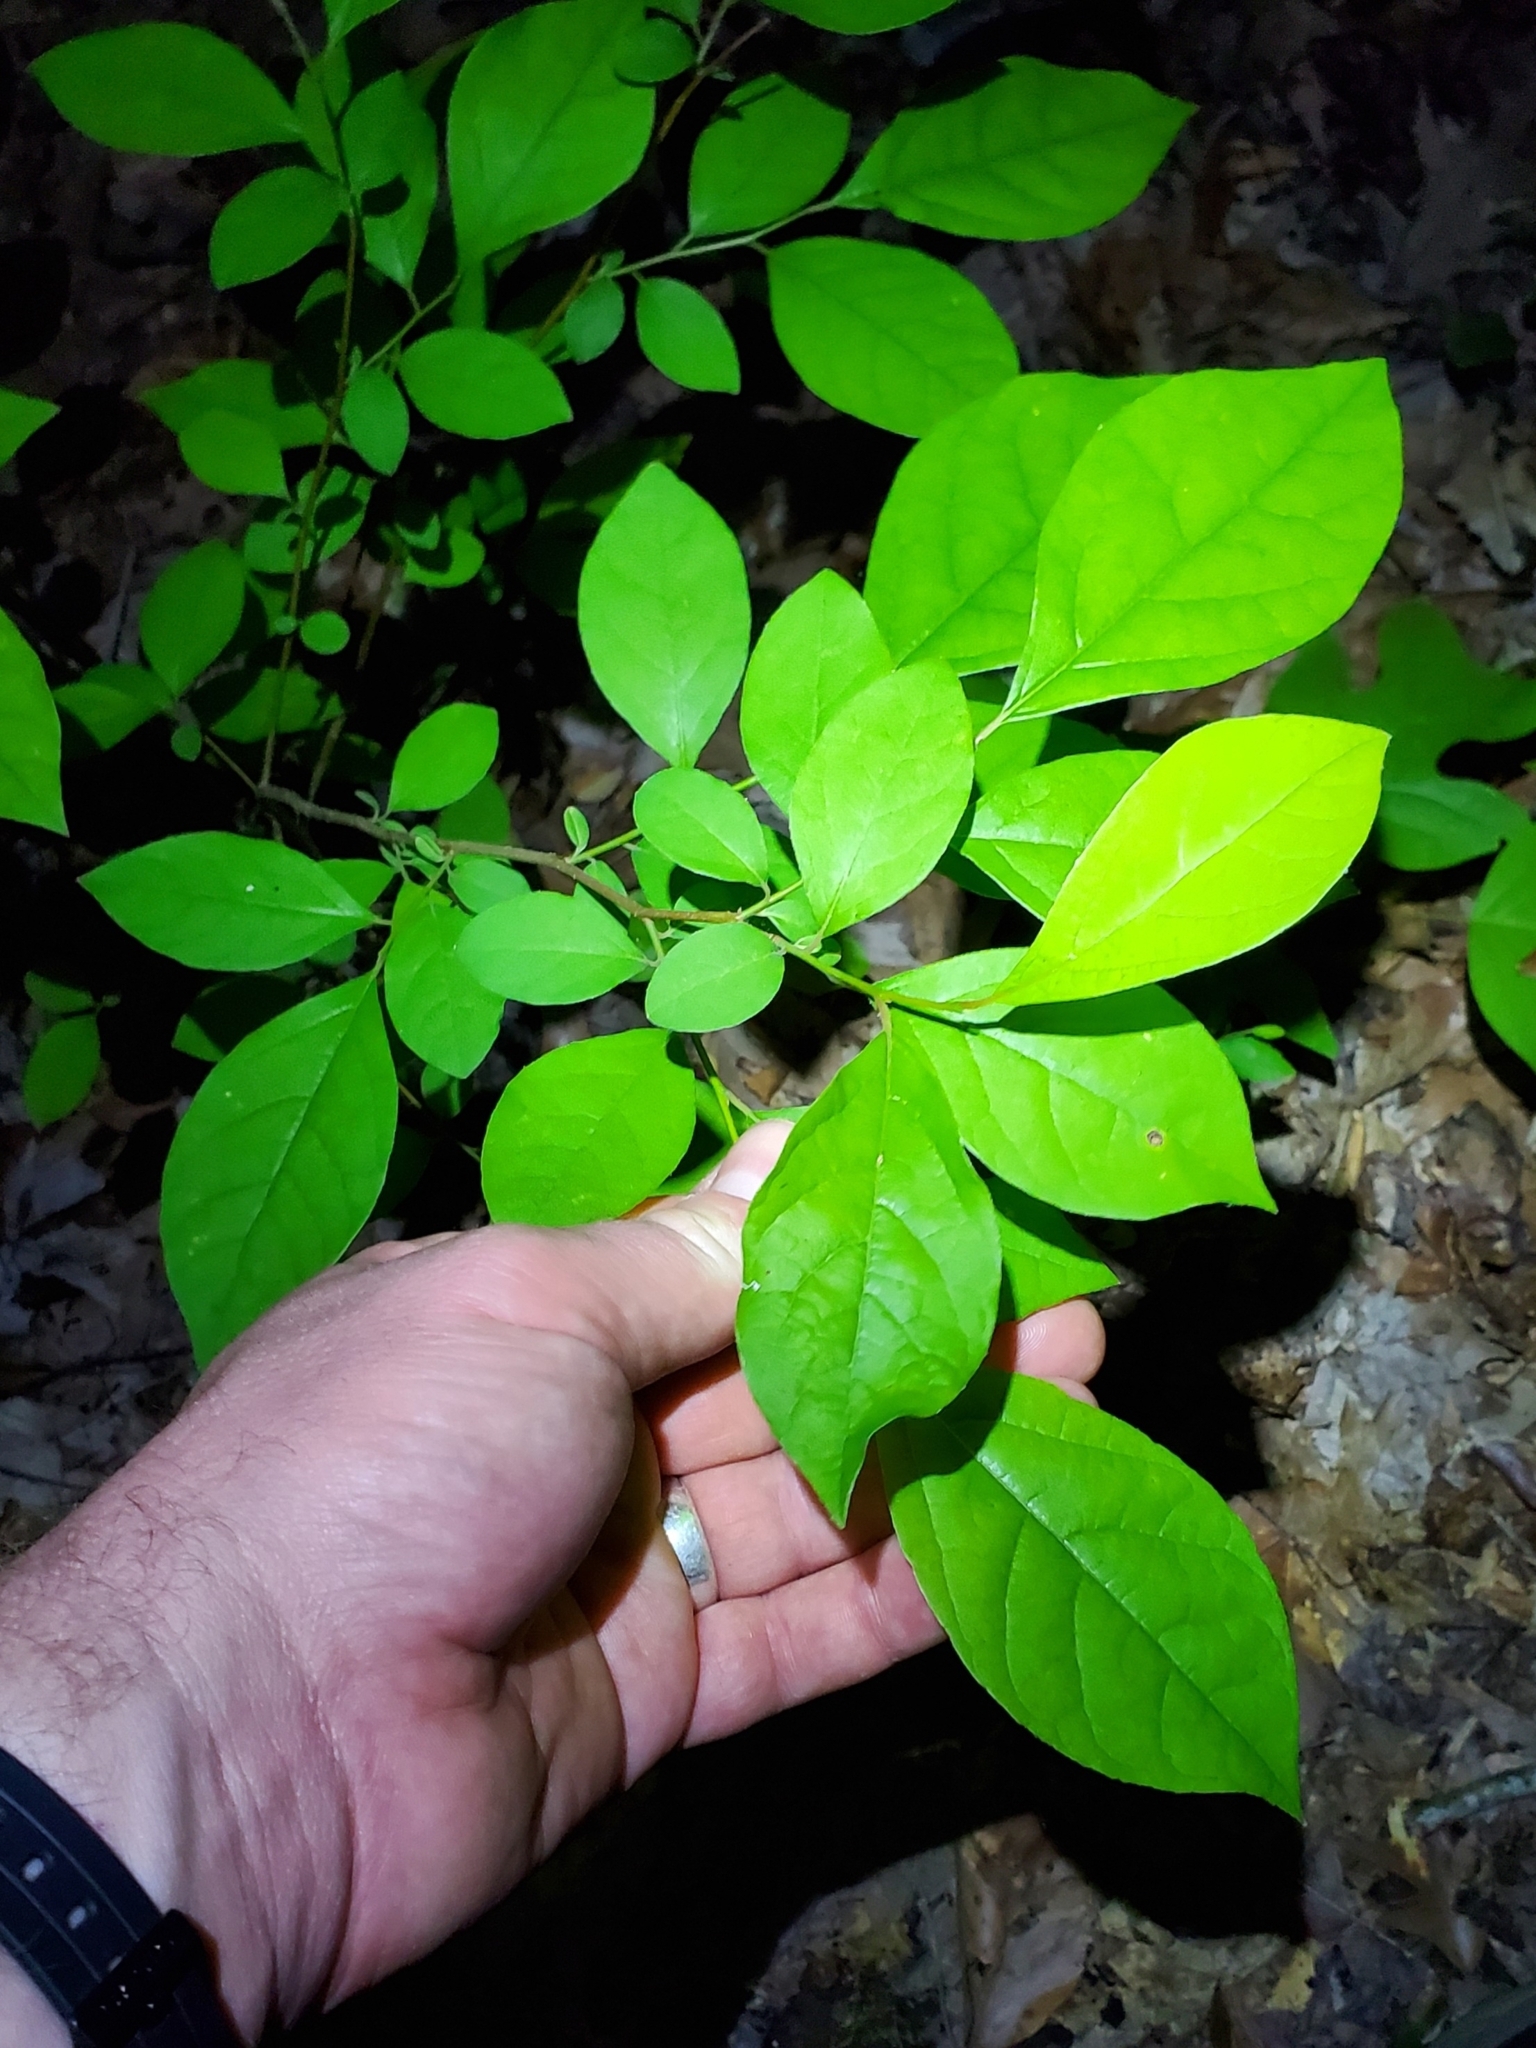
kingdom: Plantae
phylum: Tracheophyta
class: Magnoliopsida
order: Laurales
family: Lauraceae
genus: Lindera
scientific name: Lindera benzoin
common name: Spicebush
